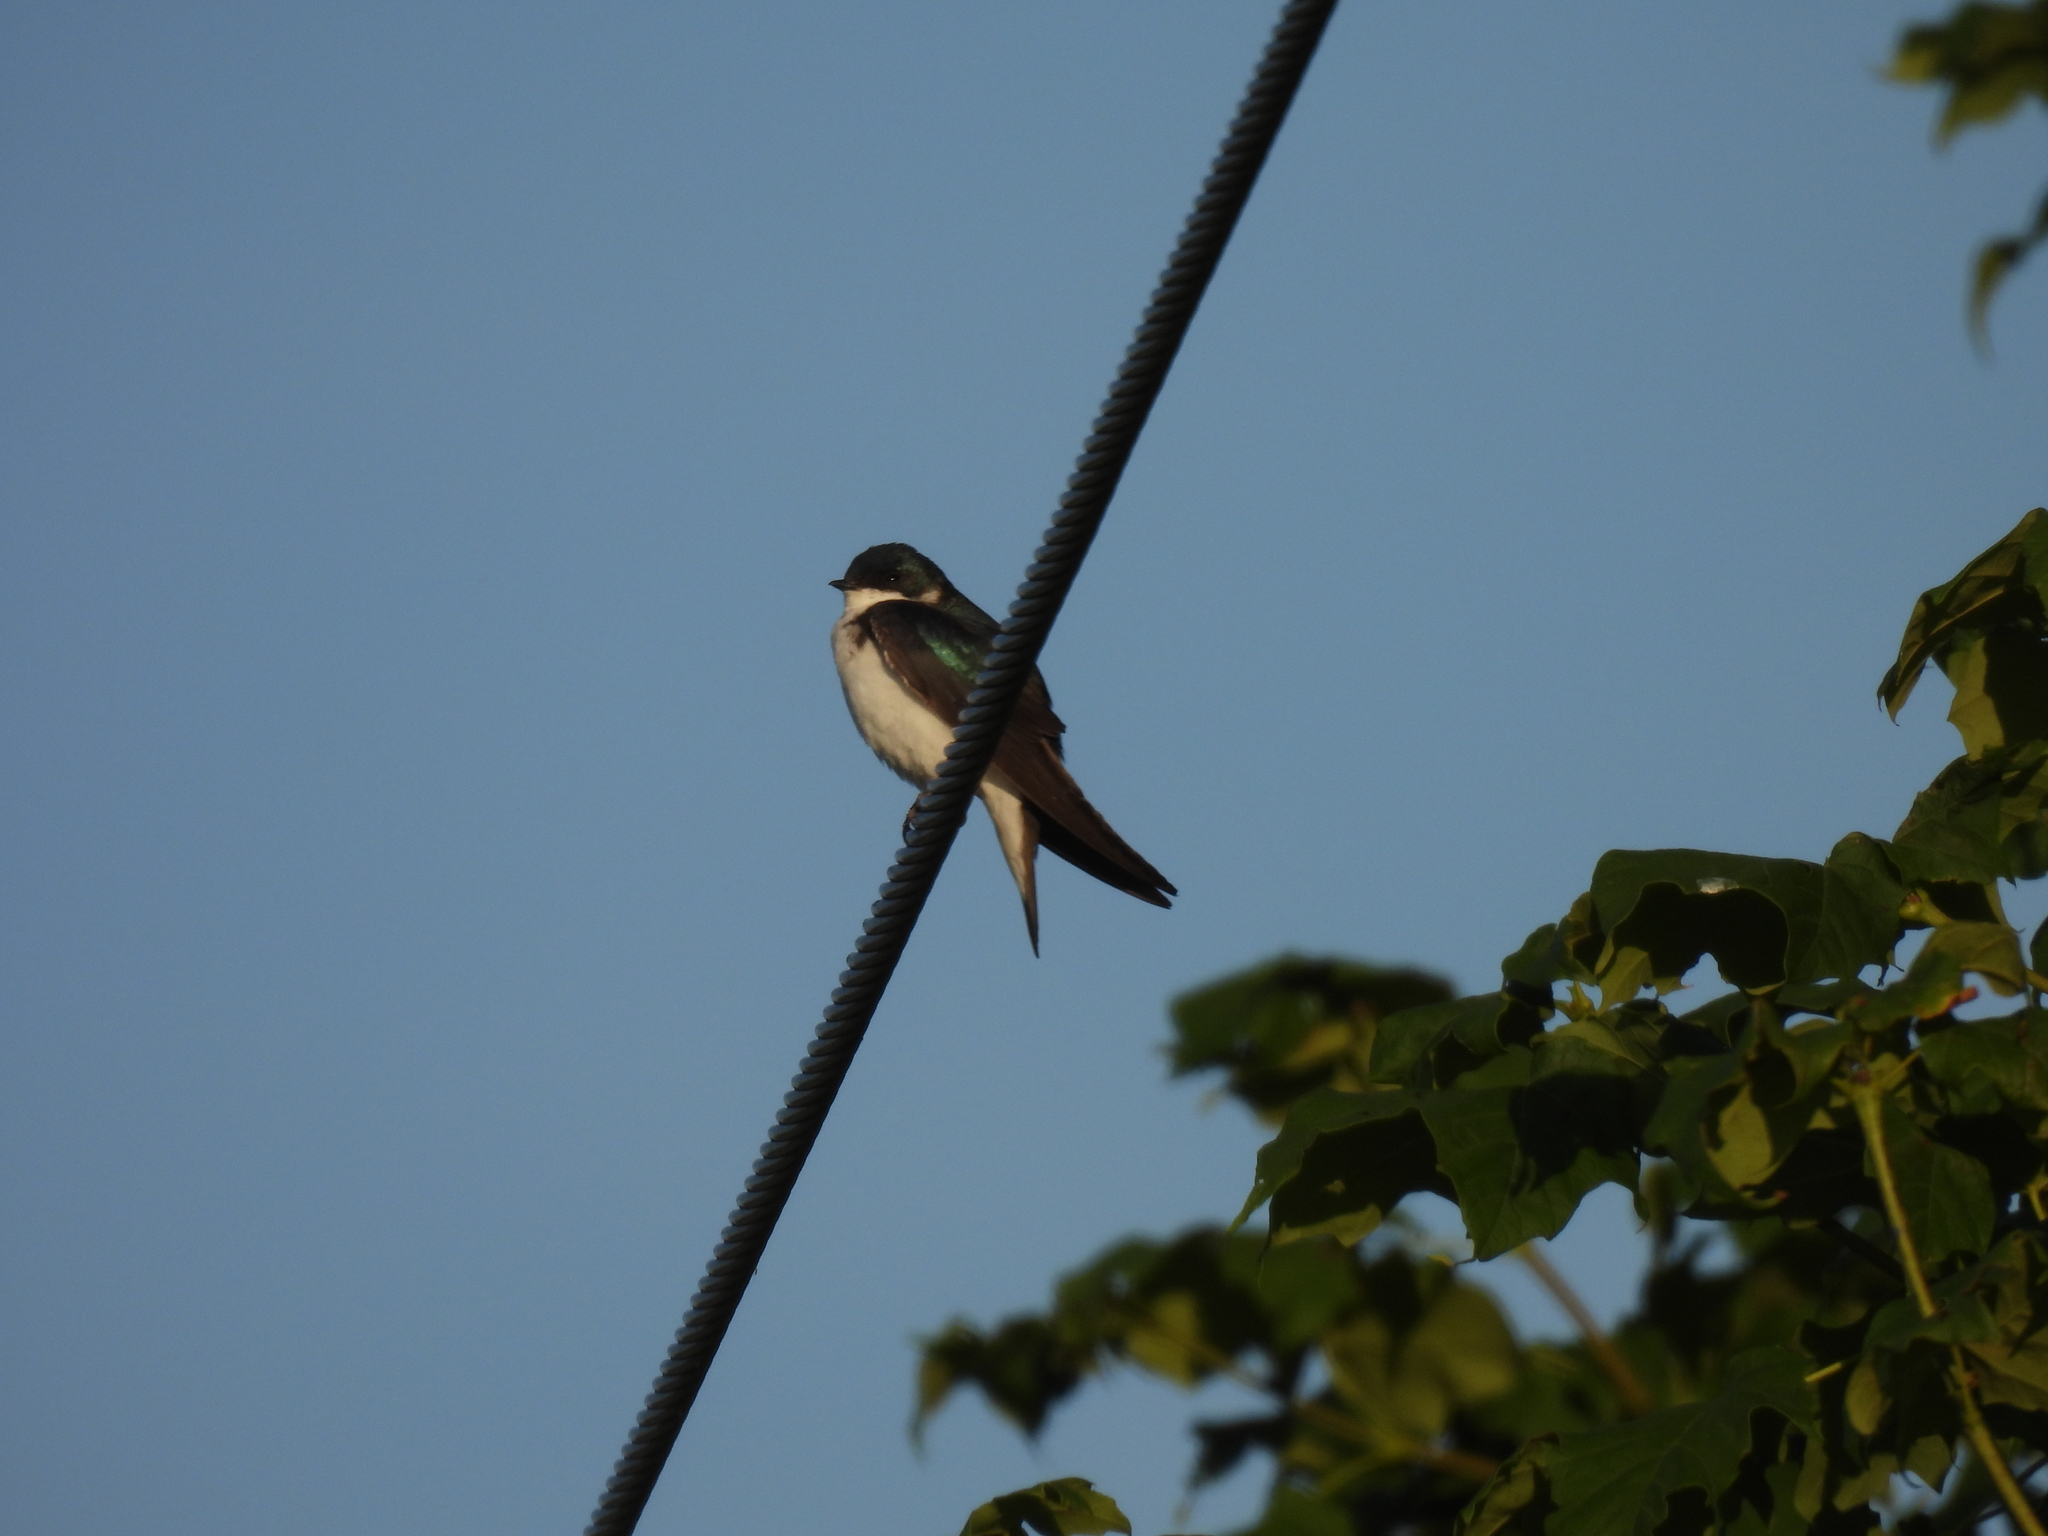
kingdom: Animalia
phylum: Chordata
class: Aves
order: Passeriformes
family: Hirundinidae
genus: Tachycineta
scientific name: Tachycineta bicolor
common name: Tree swallow
